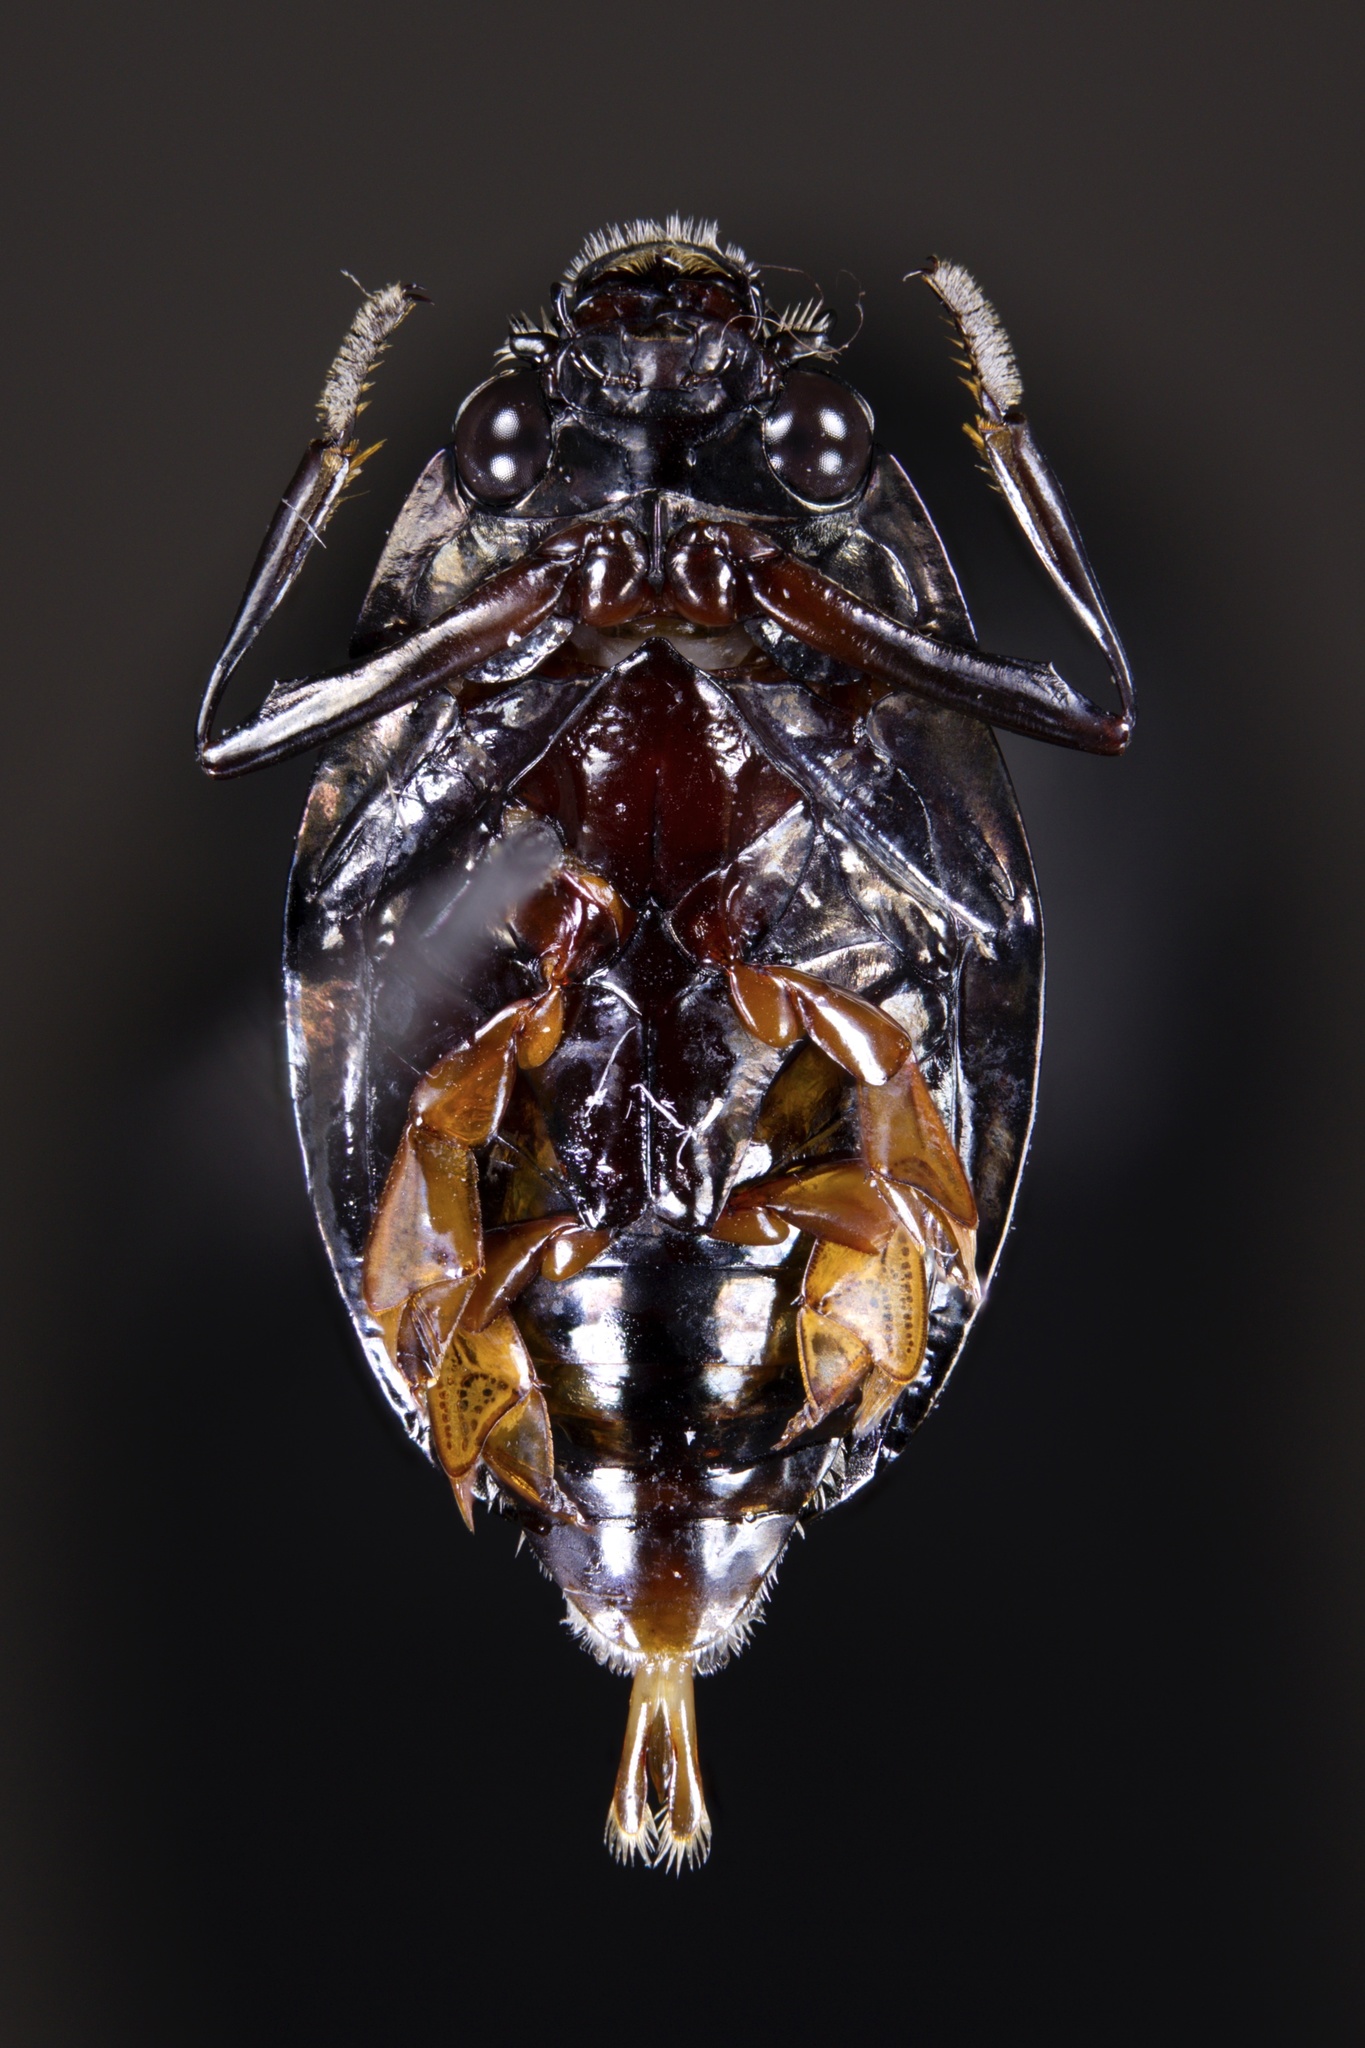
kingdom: Animalia
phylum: Arthropoda
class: Insecta
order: Coleoptera
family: Gyrinidae
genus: Dineutus
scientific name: Dineutus emarginatus
